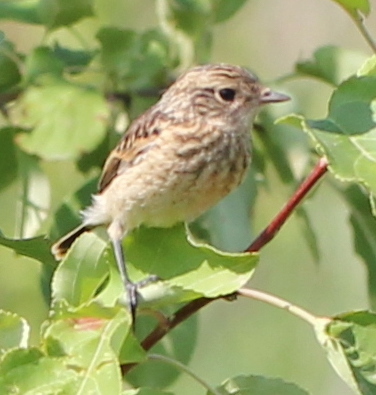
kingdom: Animalia
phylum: Chordata
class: Aves
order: Passeriformes
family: Muscicapidae
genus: Saxicola
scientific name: Saxicola maurus
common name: Siberian stonechat
